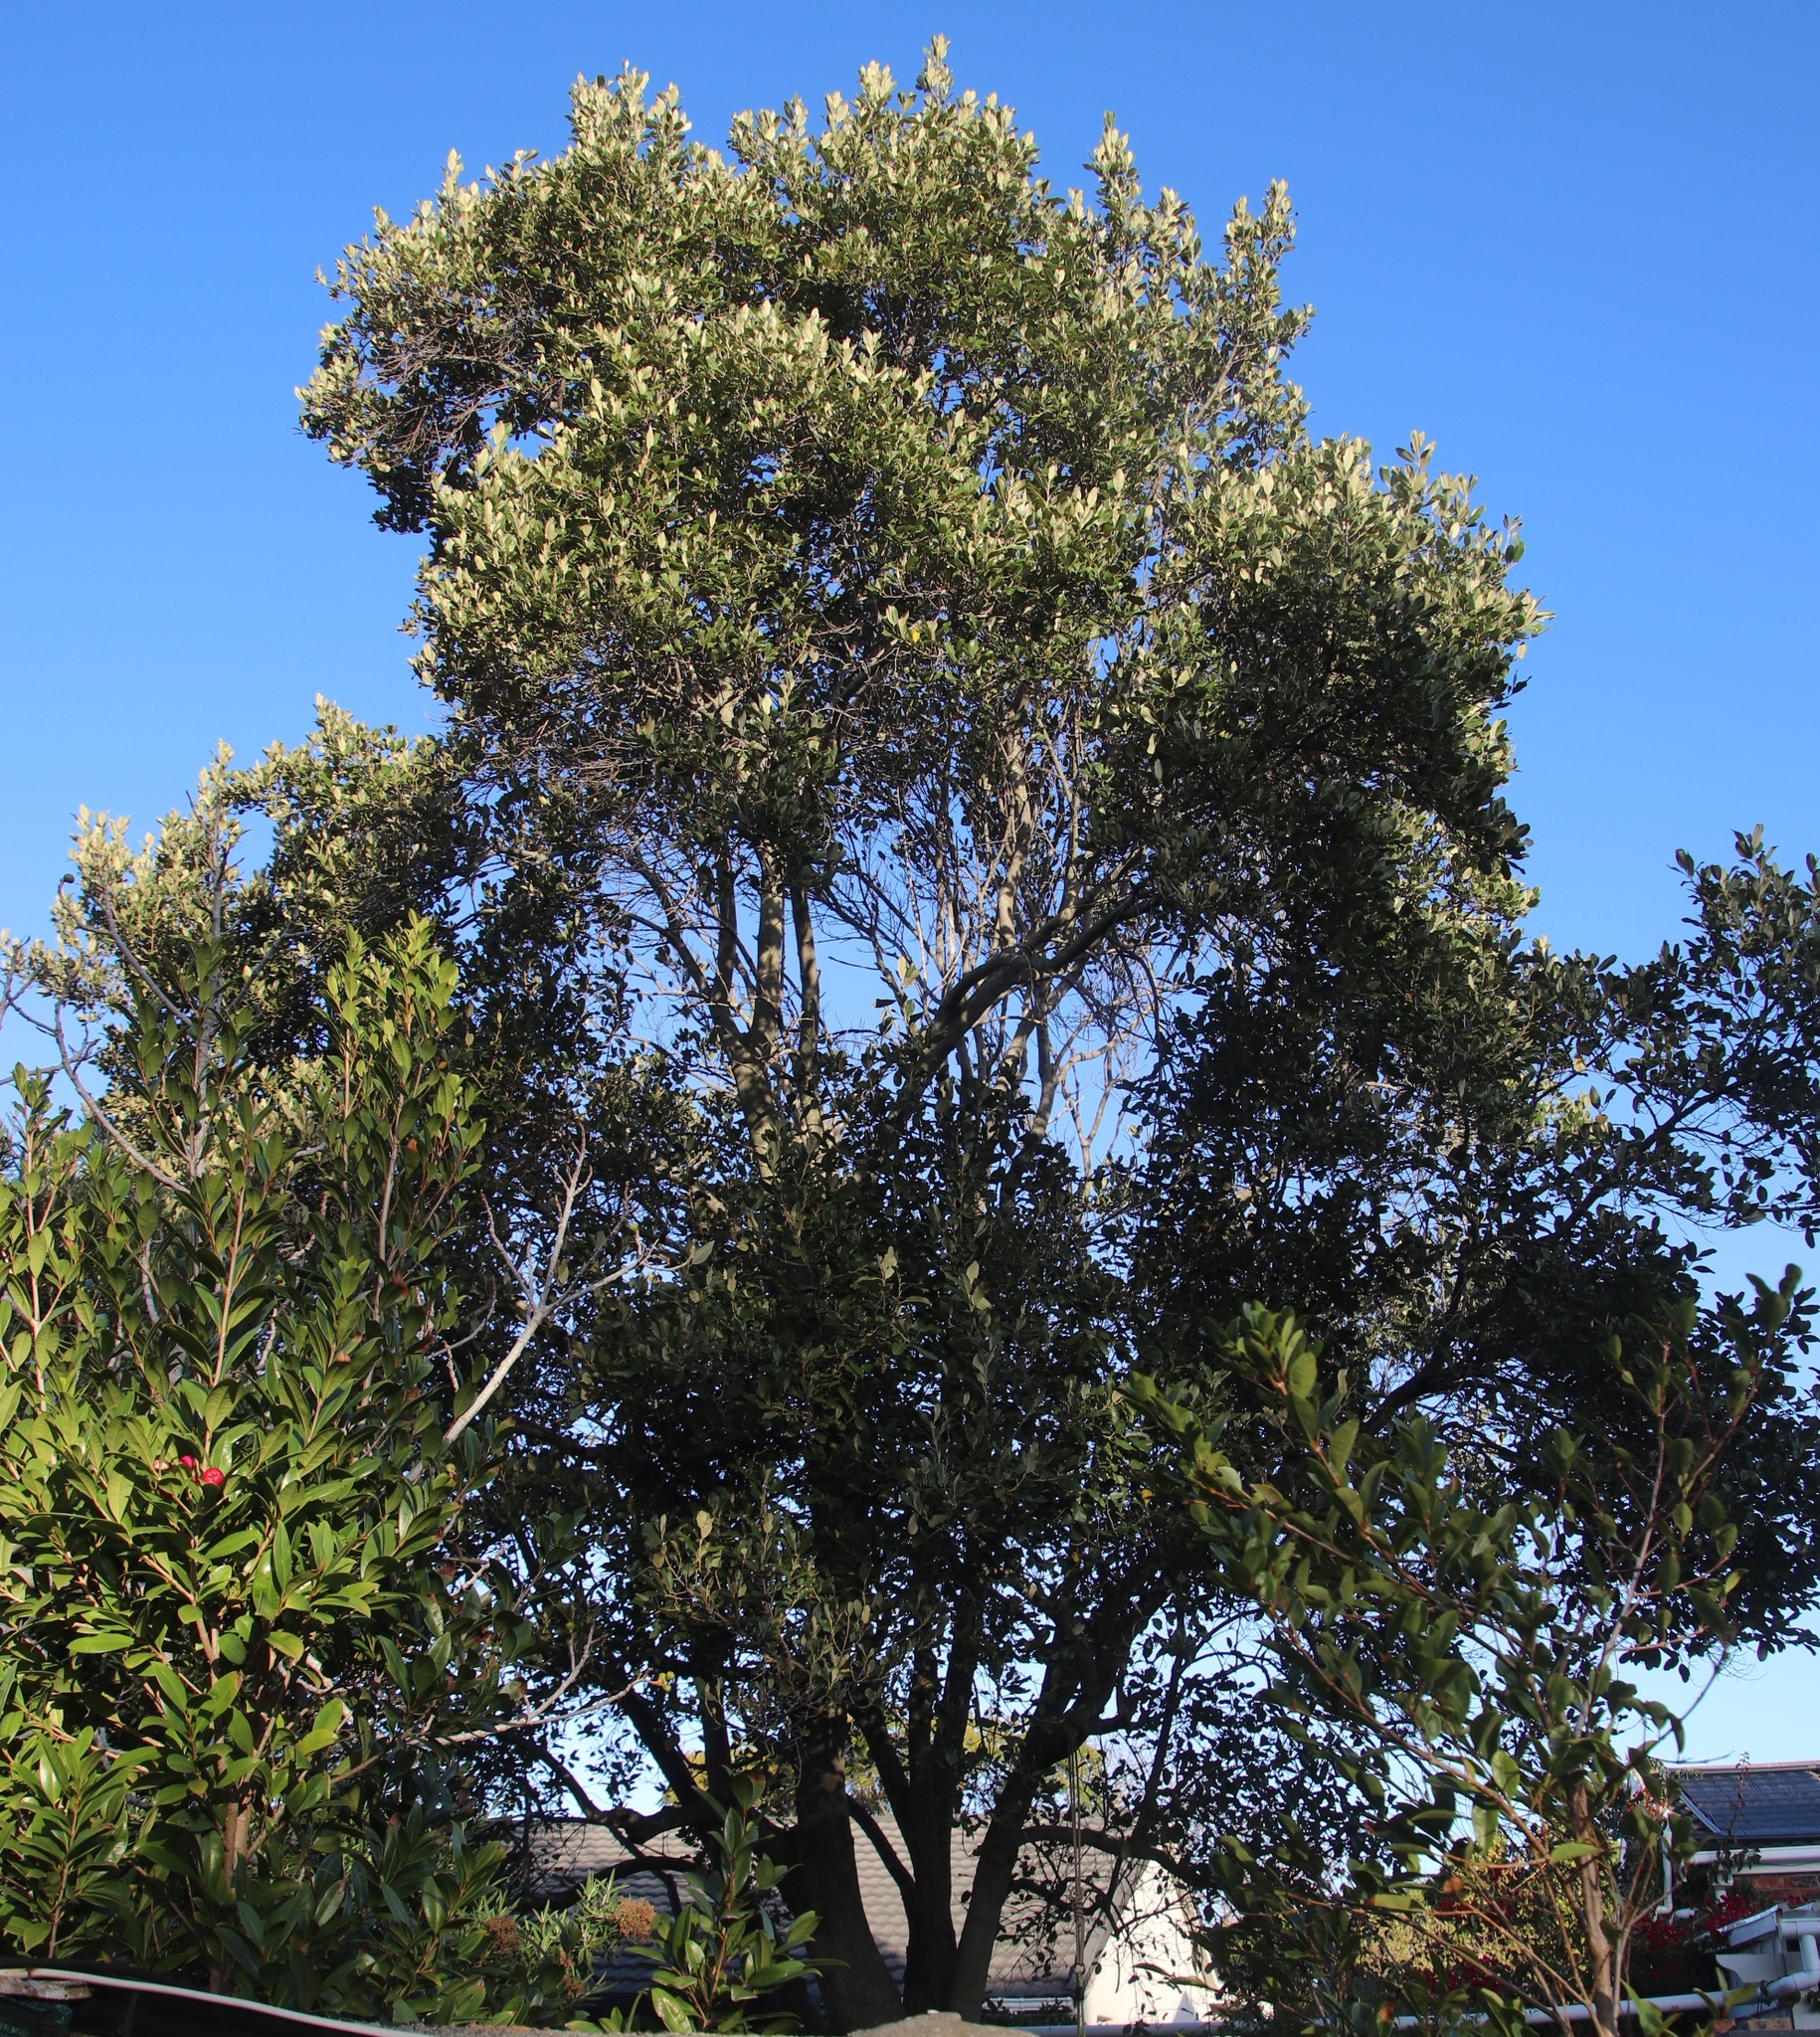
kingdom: Plantae
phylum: Tracheophyta
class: Magnoliopsida
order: Malpighiales
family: Achariaceae
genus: Kiggelaria
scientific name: Kiggelaria africana
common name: Wild peach
